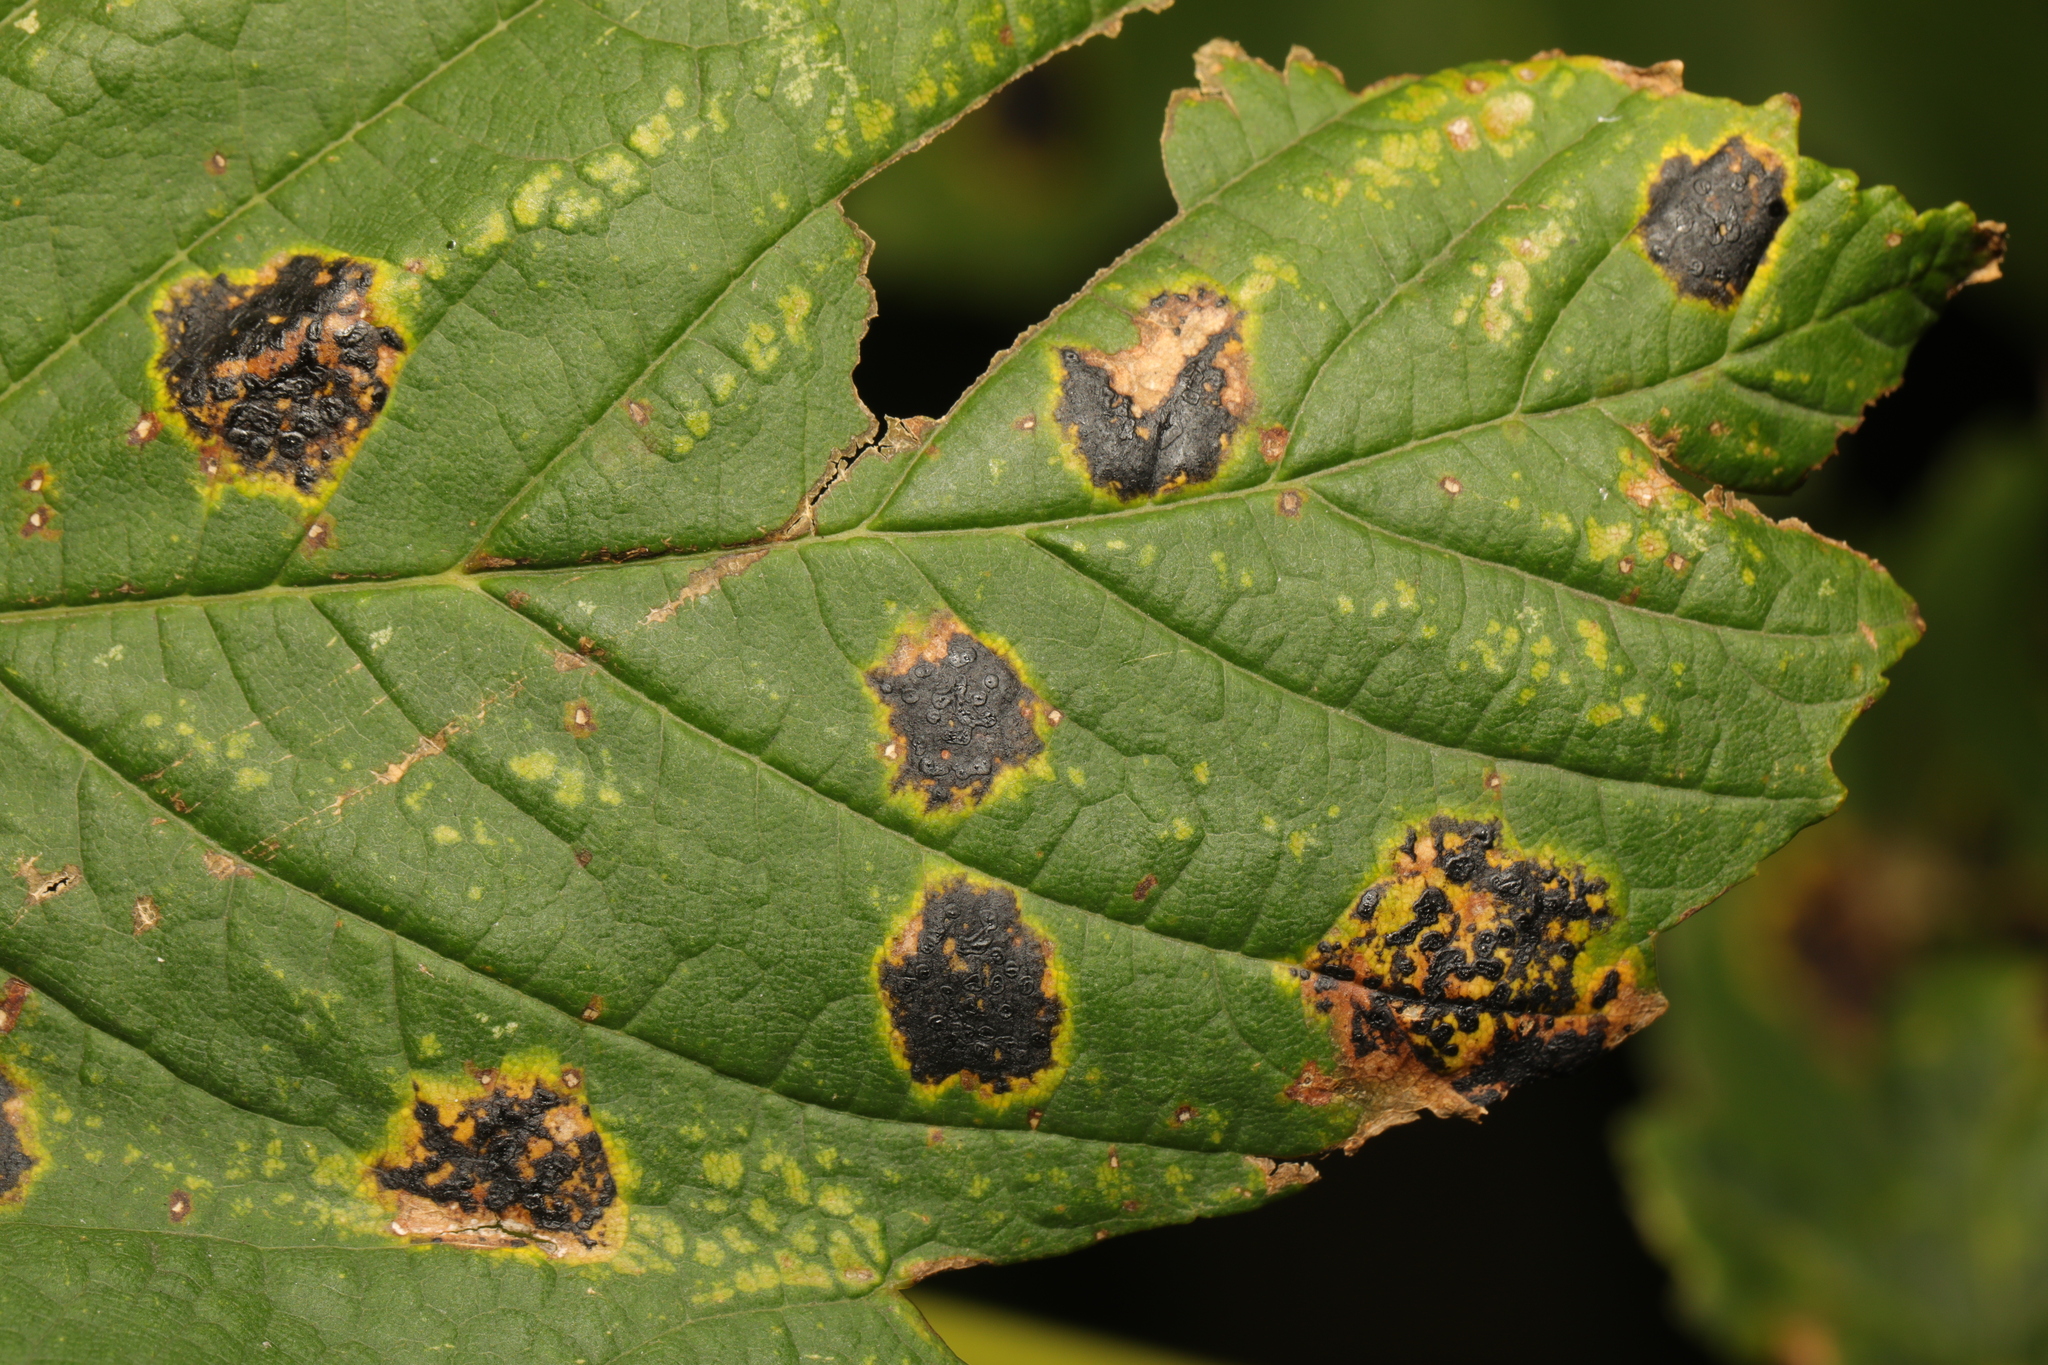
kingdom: Fungi
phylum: Ascomycota
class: Leotiomycetes
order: Rhytismatales
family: Rhytismataceae
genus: Rhytisma
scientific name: Rhytisma acerinum
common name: European tar spot
